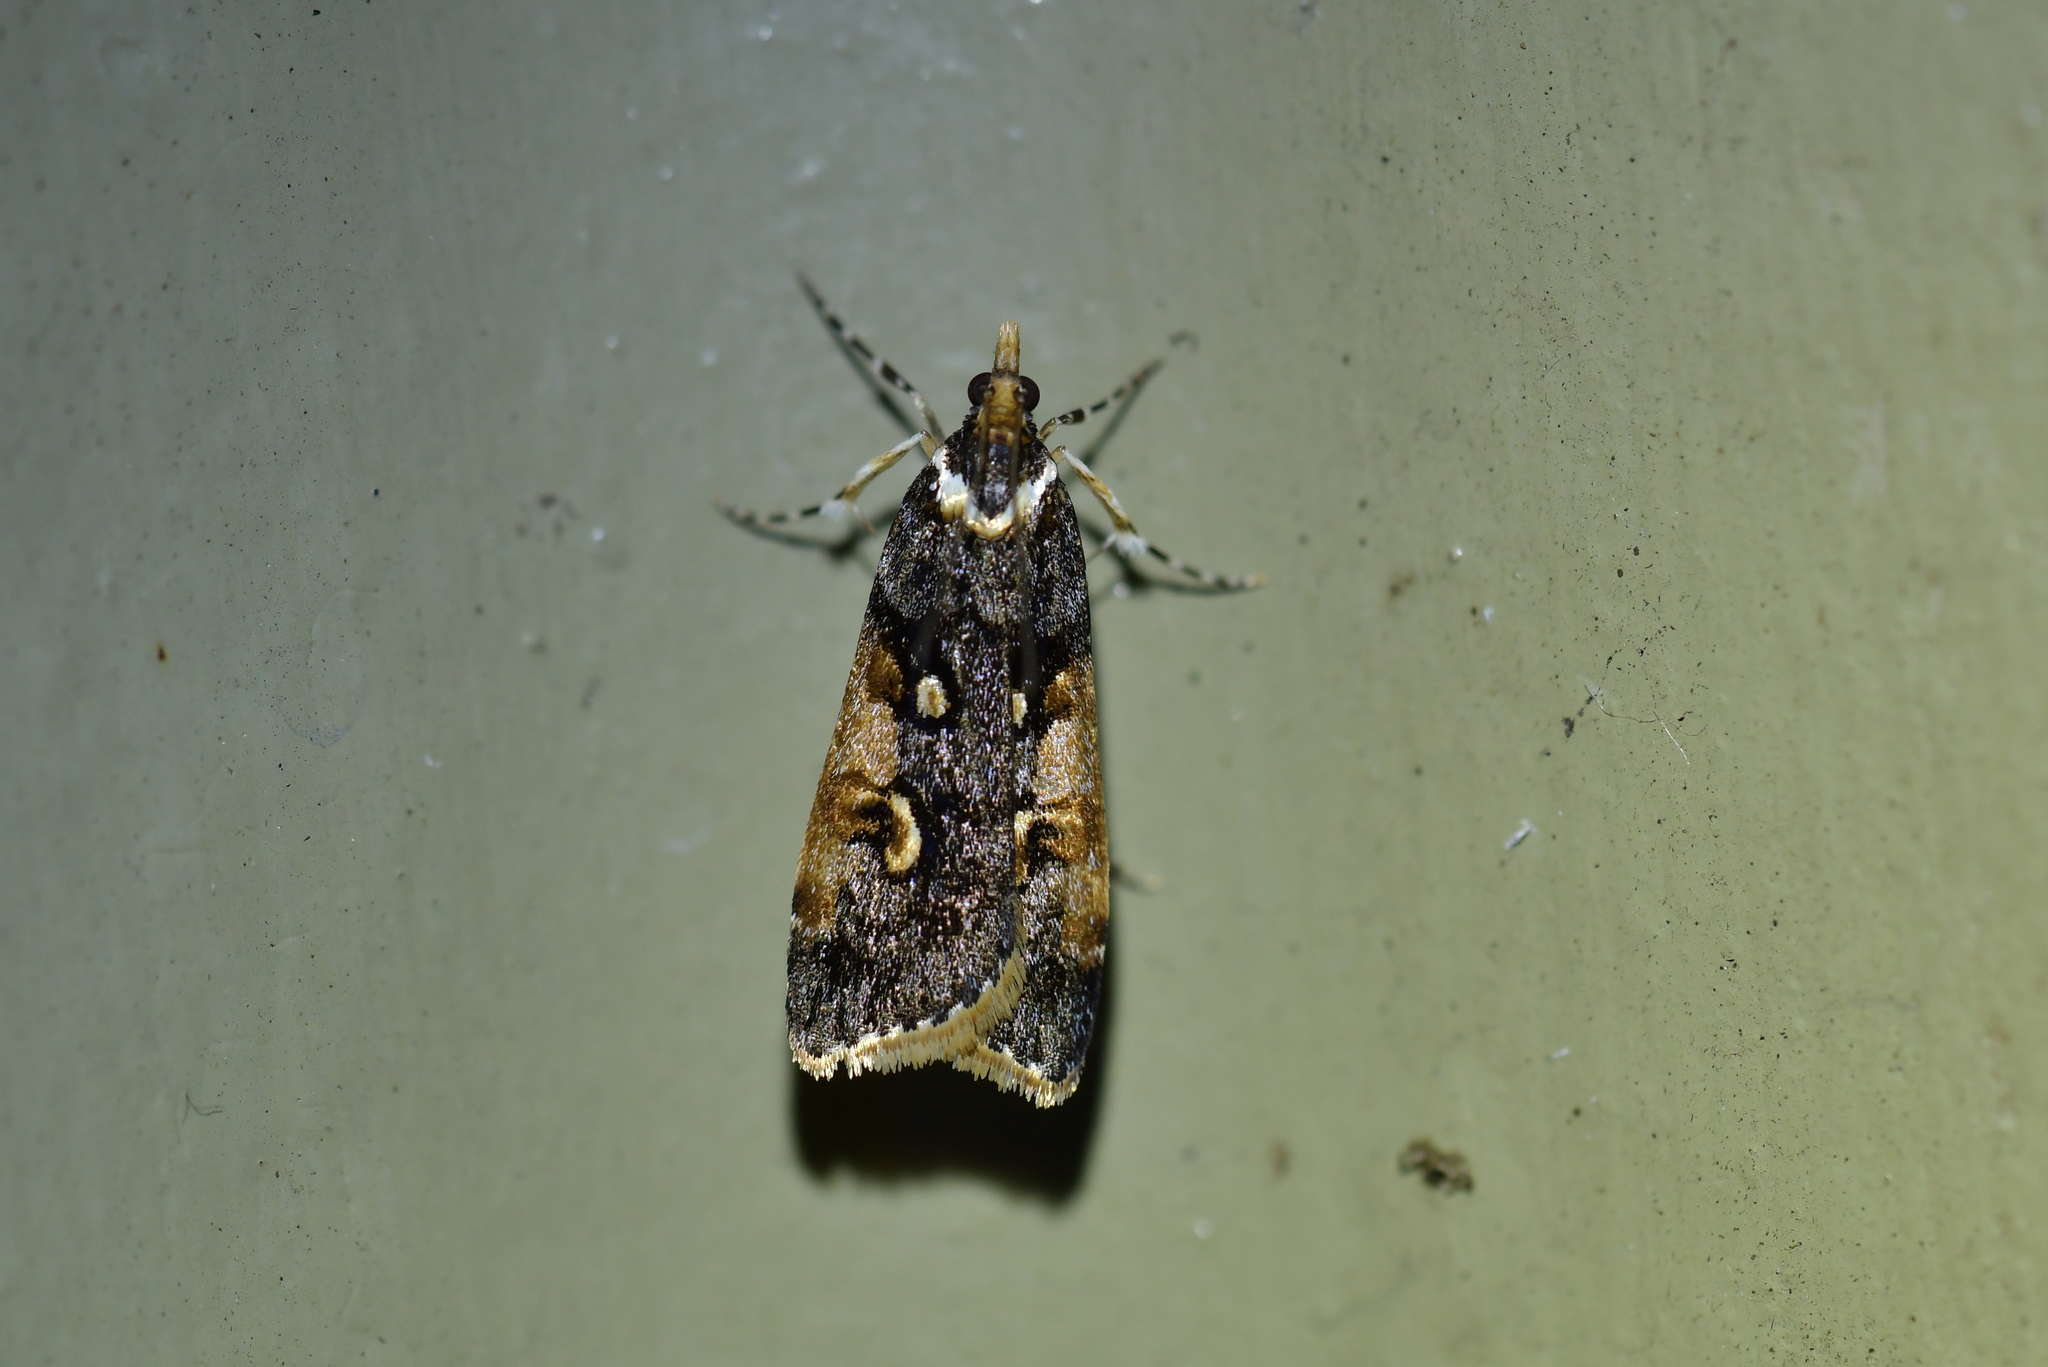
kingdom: Animalia
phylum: Arthropoda
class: Insecta
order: Lepidoptera
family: Crambidae
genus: Scoparia
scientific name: Scoparia phalerias
